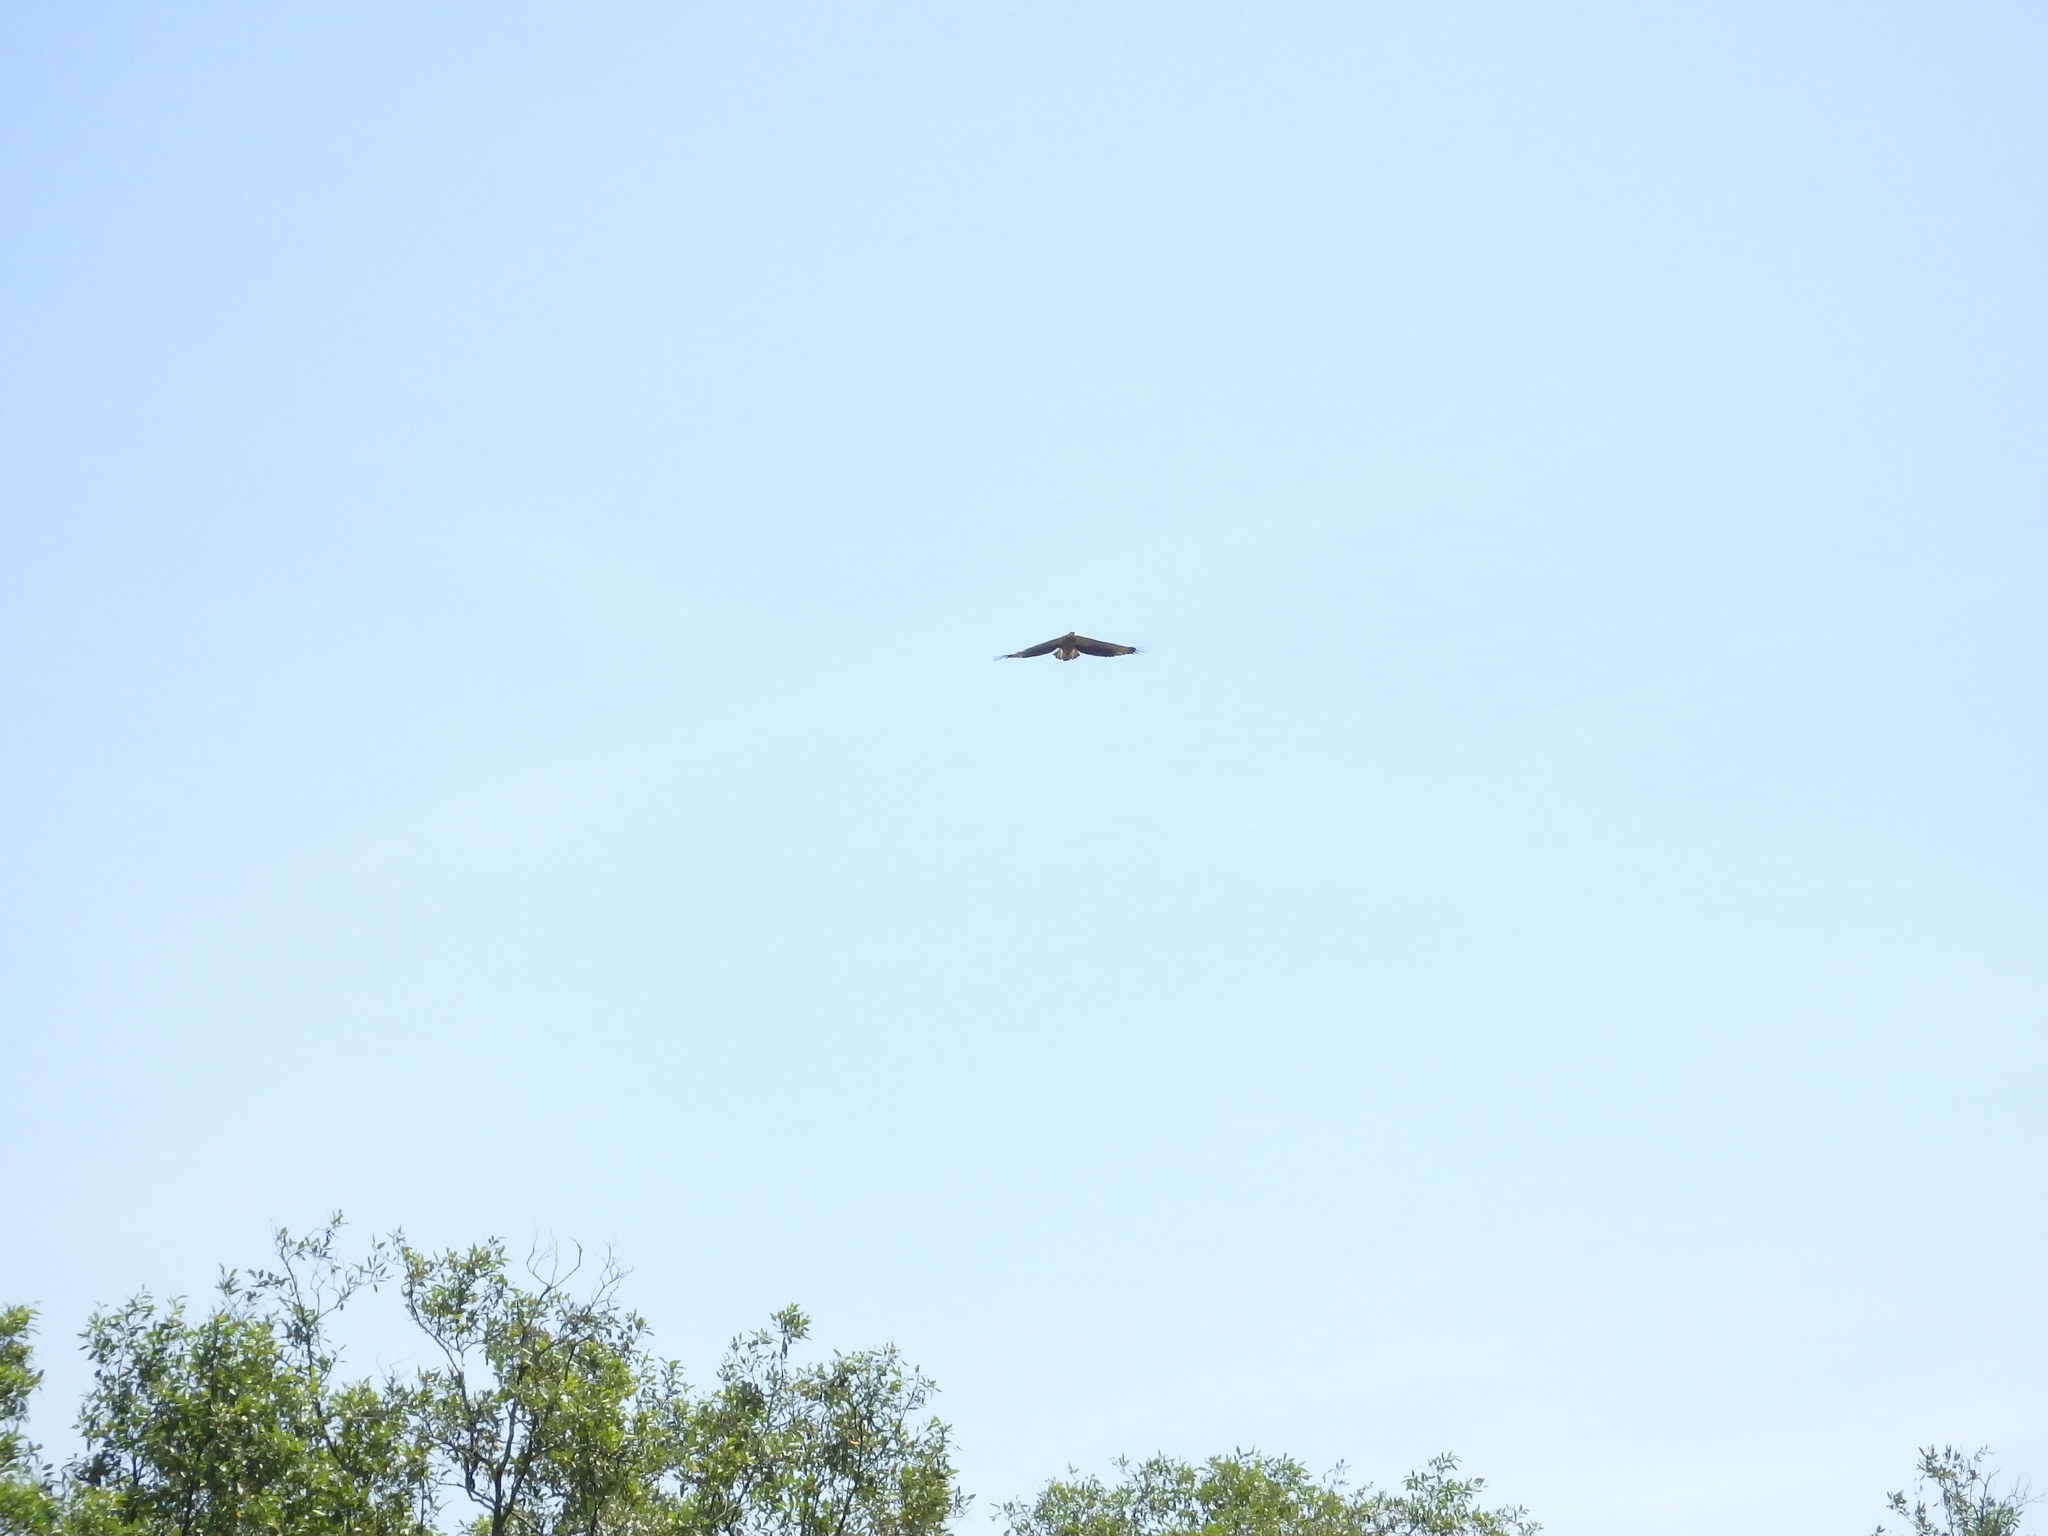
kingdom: Animalia
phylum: Chordata
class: Aves
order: Accipitriformes
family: Accipitridae
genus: Haliaeetus
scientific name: Haliaeetus leucogaster
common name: White-bellied sea eagle
